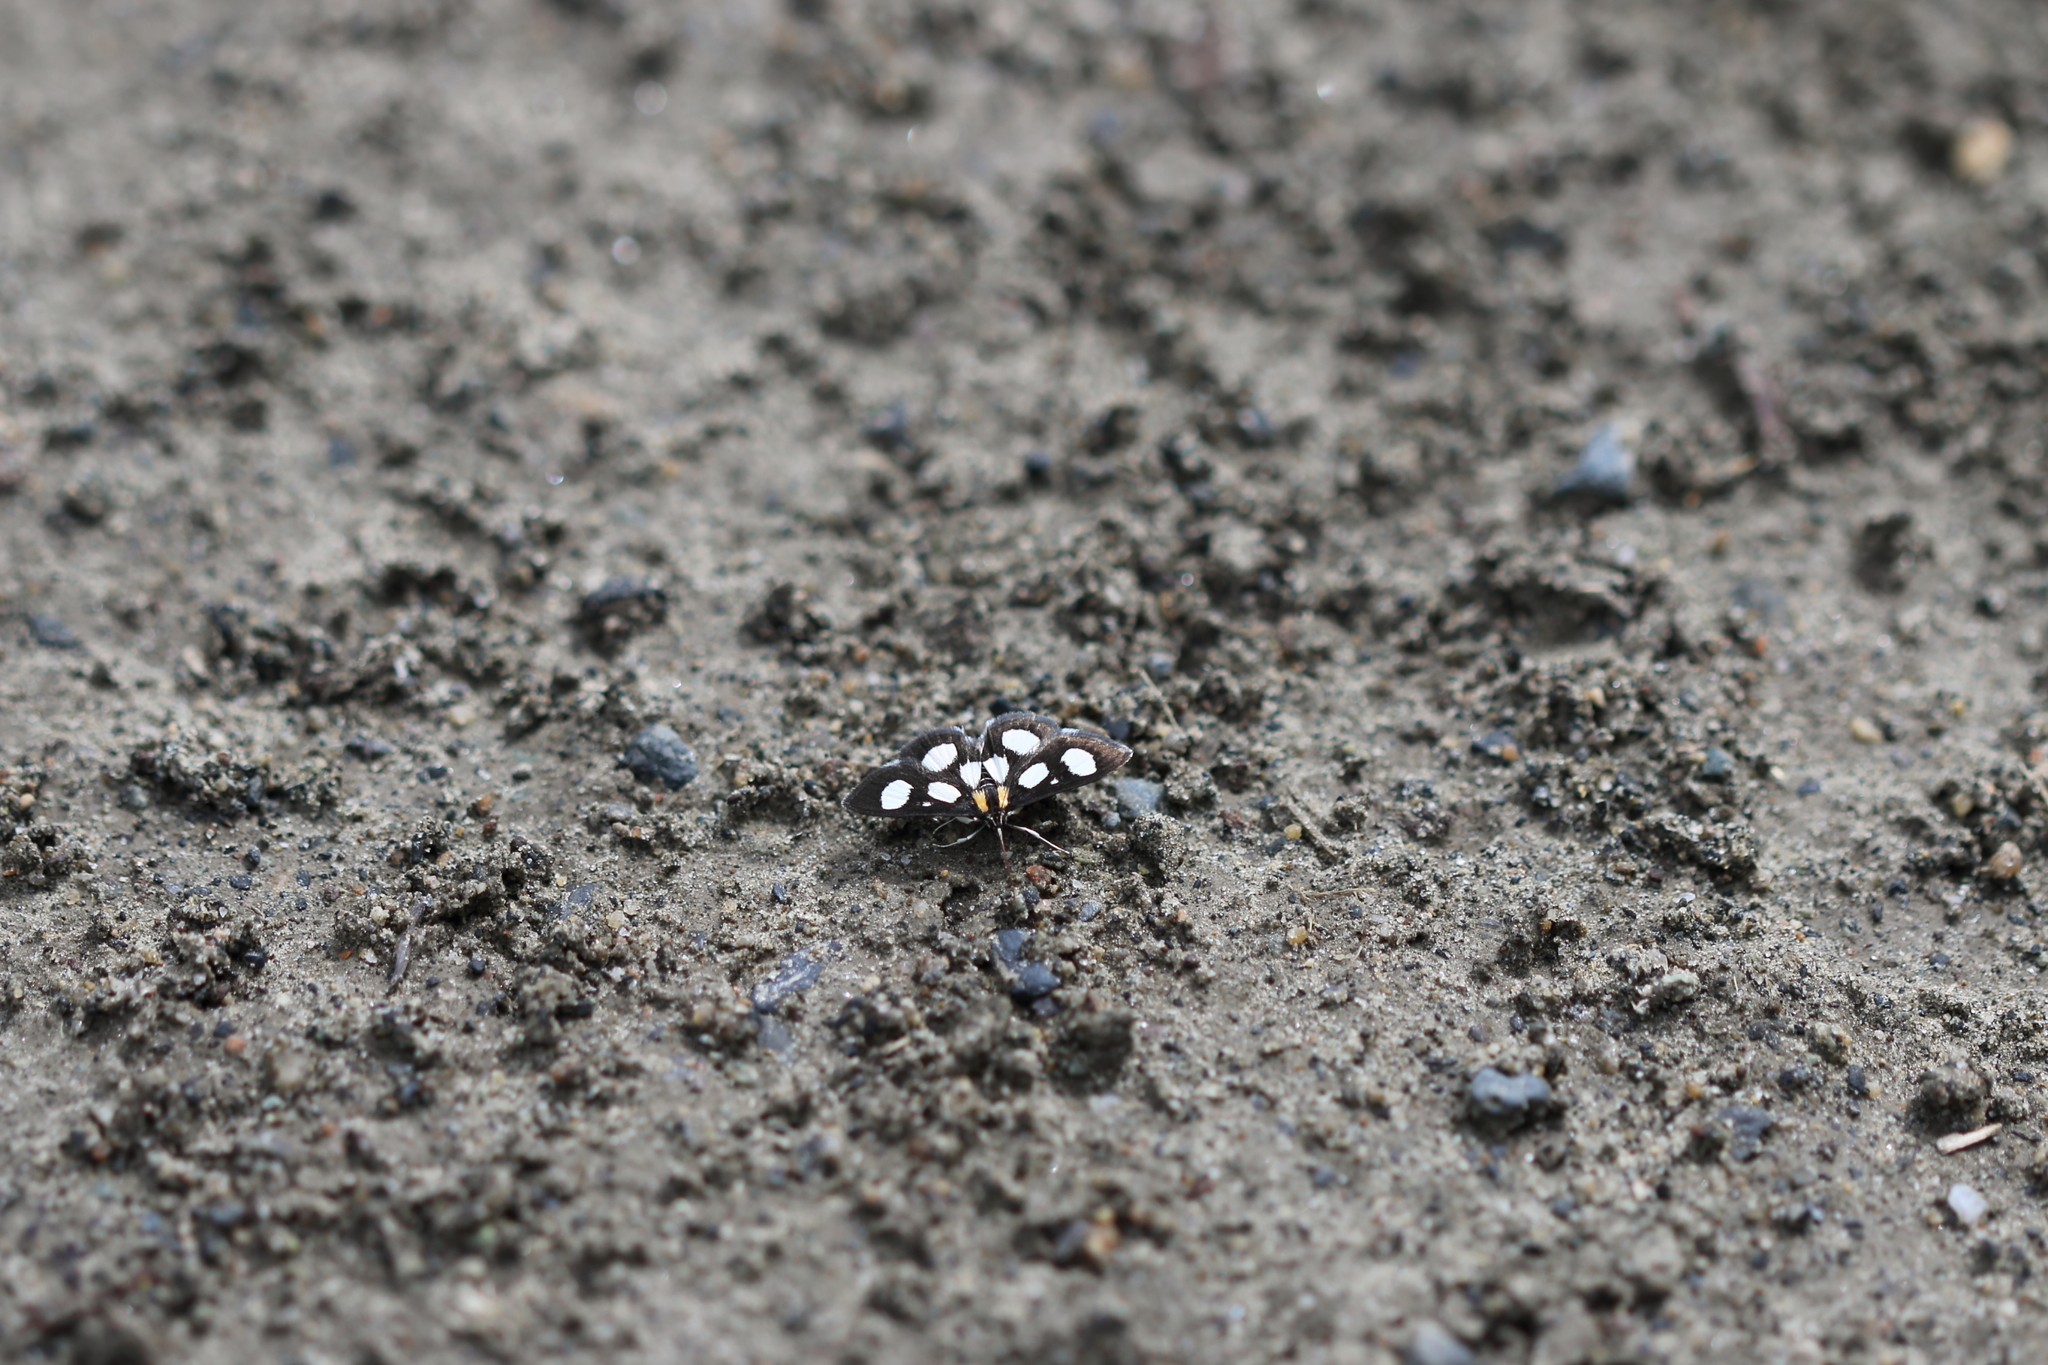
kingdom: Animalia
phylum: Arthropoda
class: Insecta
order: Lepidoptera
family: Crambidae
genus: Anania
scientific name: Anania funebris
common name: White-spotted sable moth
